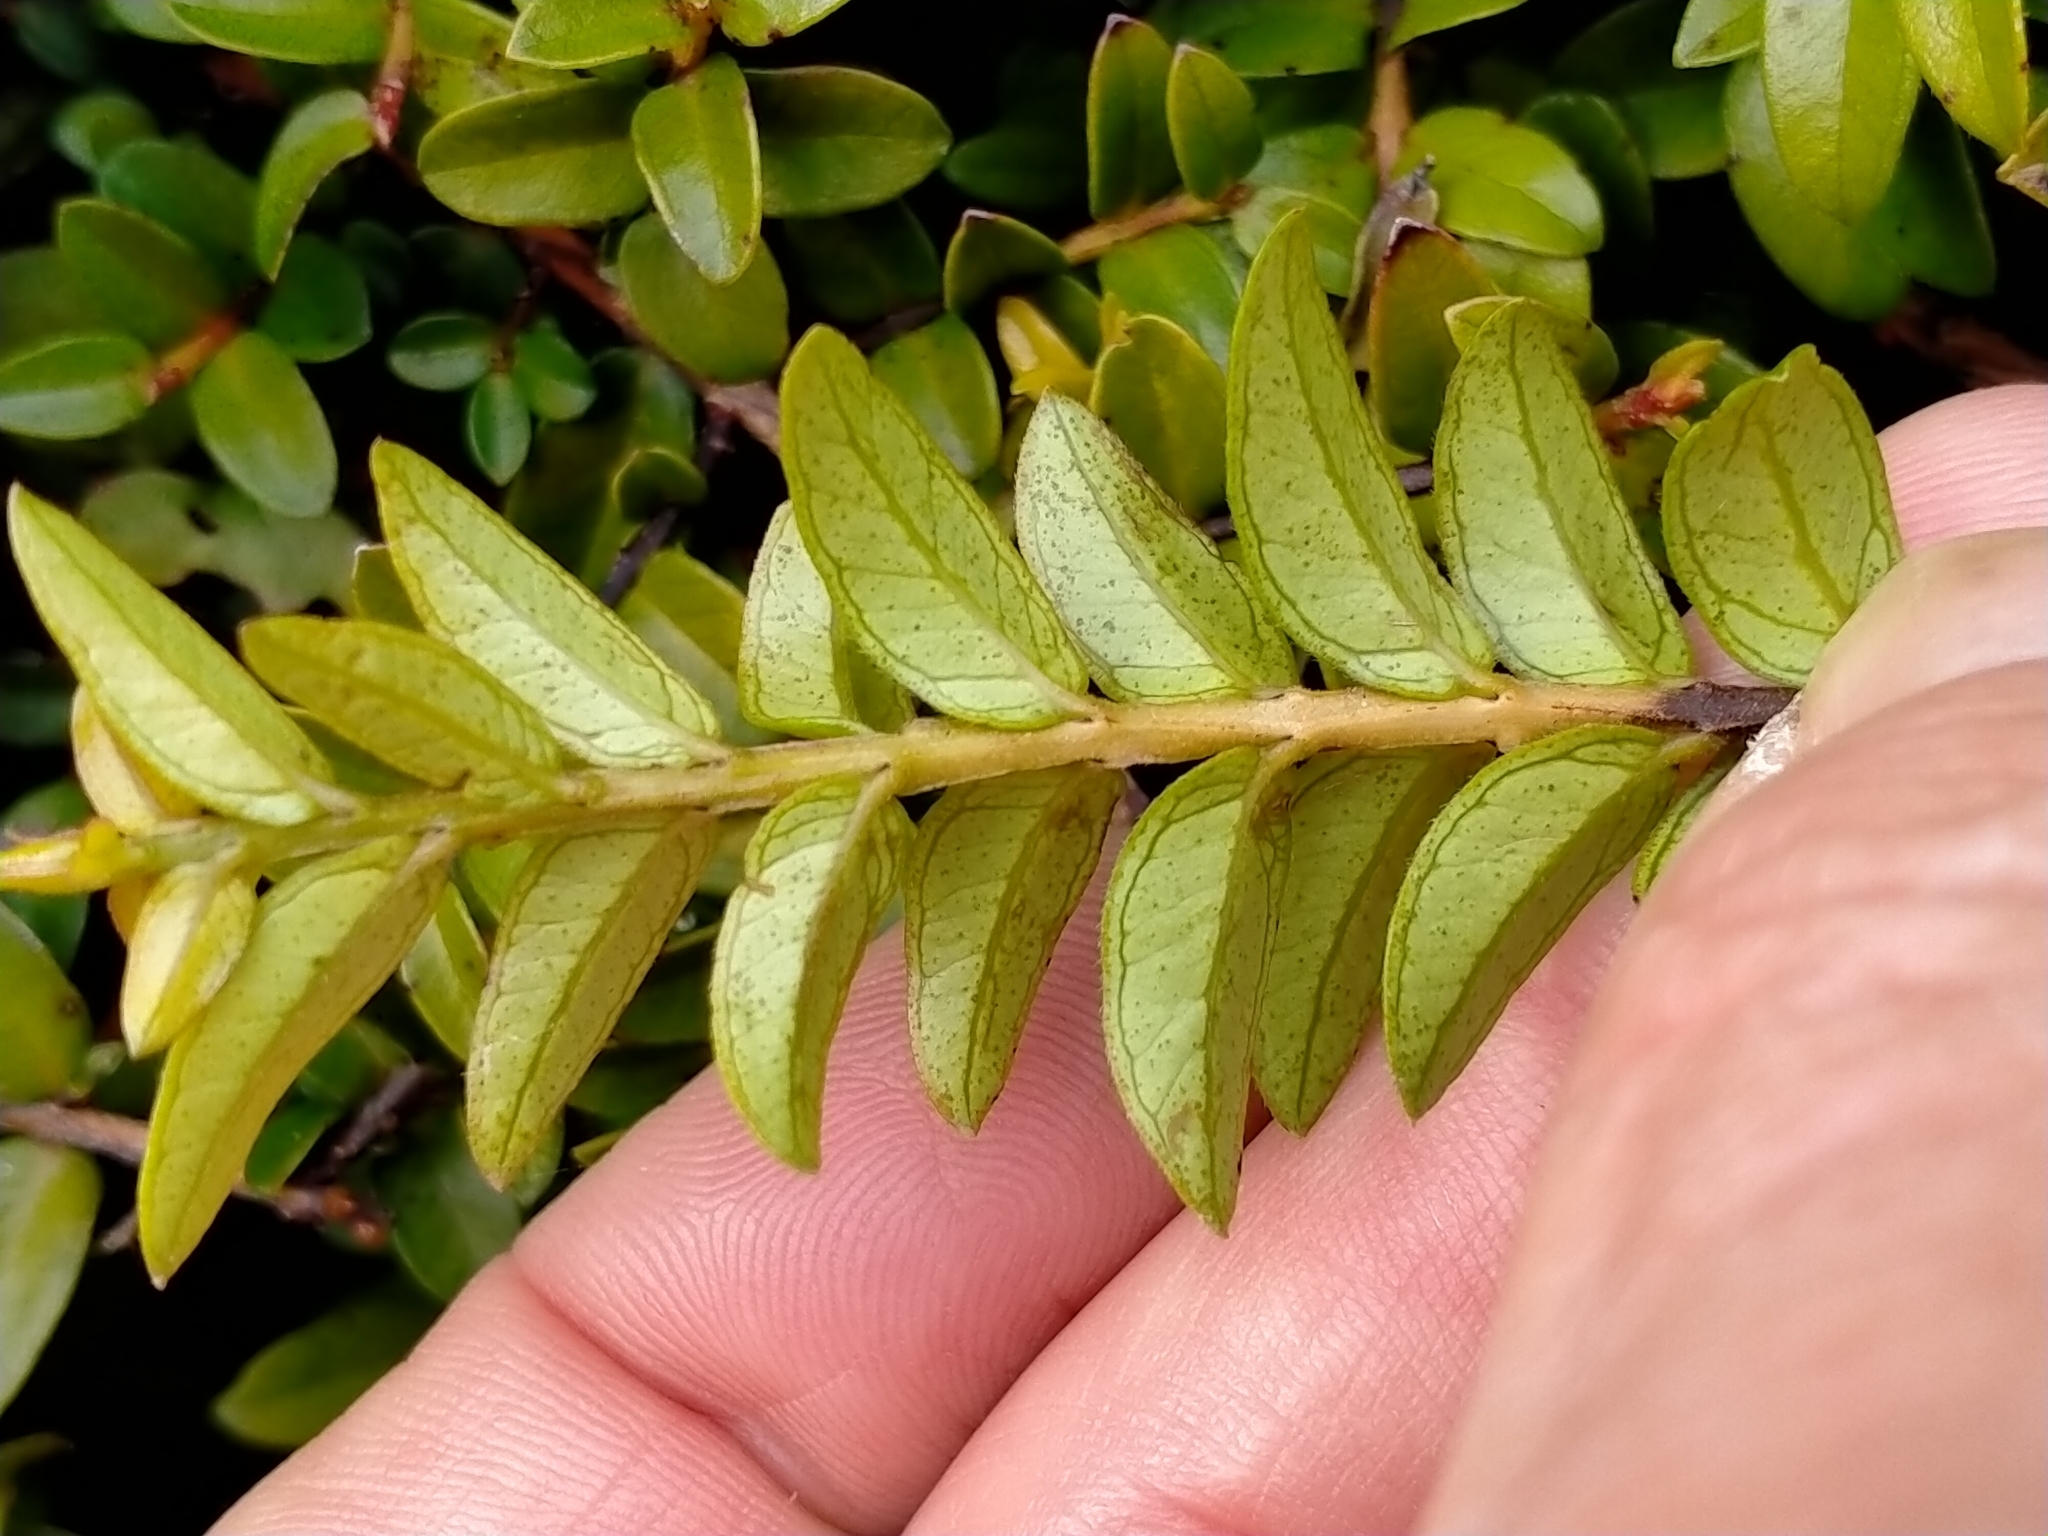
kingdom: Plantae
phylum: Tracheophyta
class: Magnoliopsida
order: Myrtales
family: Myrtaceae
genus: Metrosideros
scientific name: Metrosideros diffusa
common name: Small ratavine
